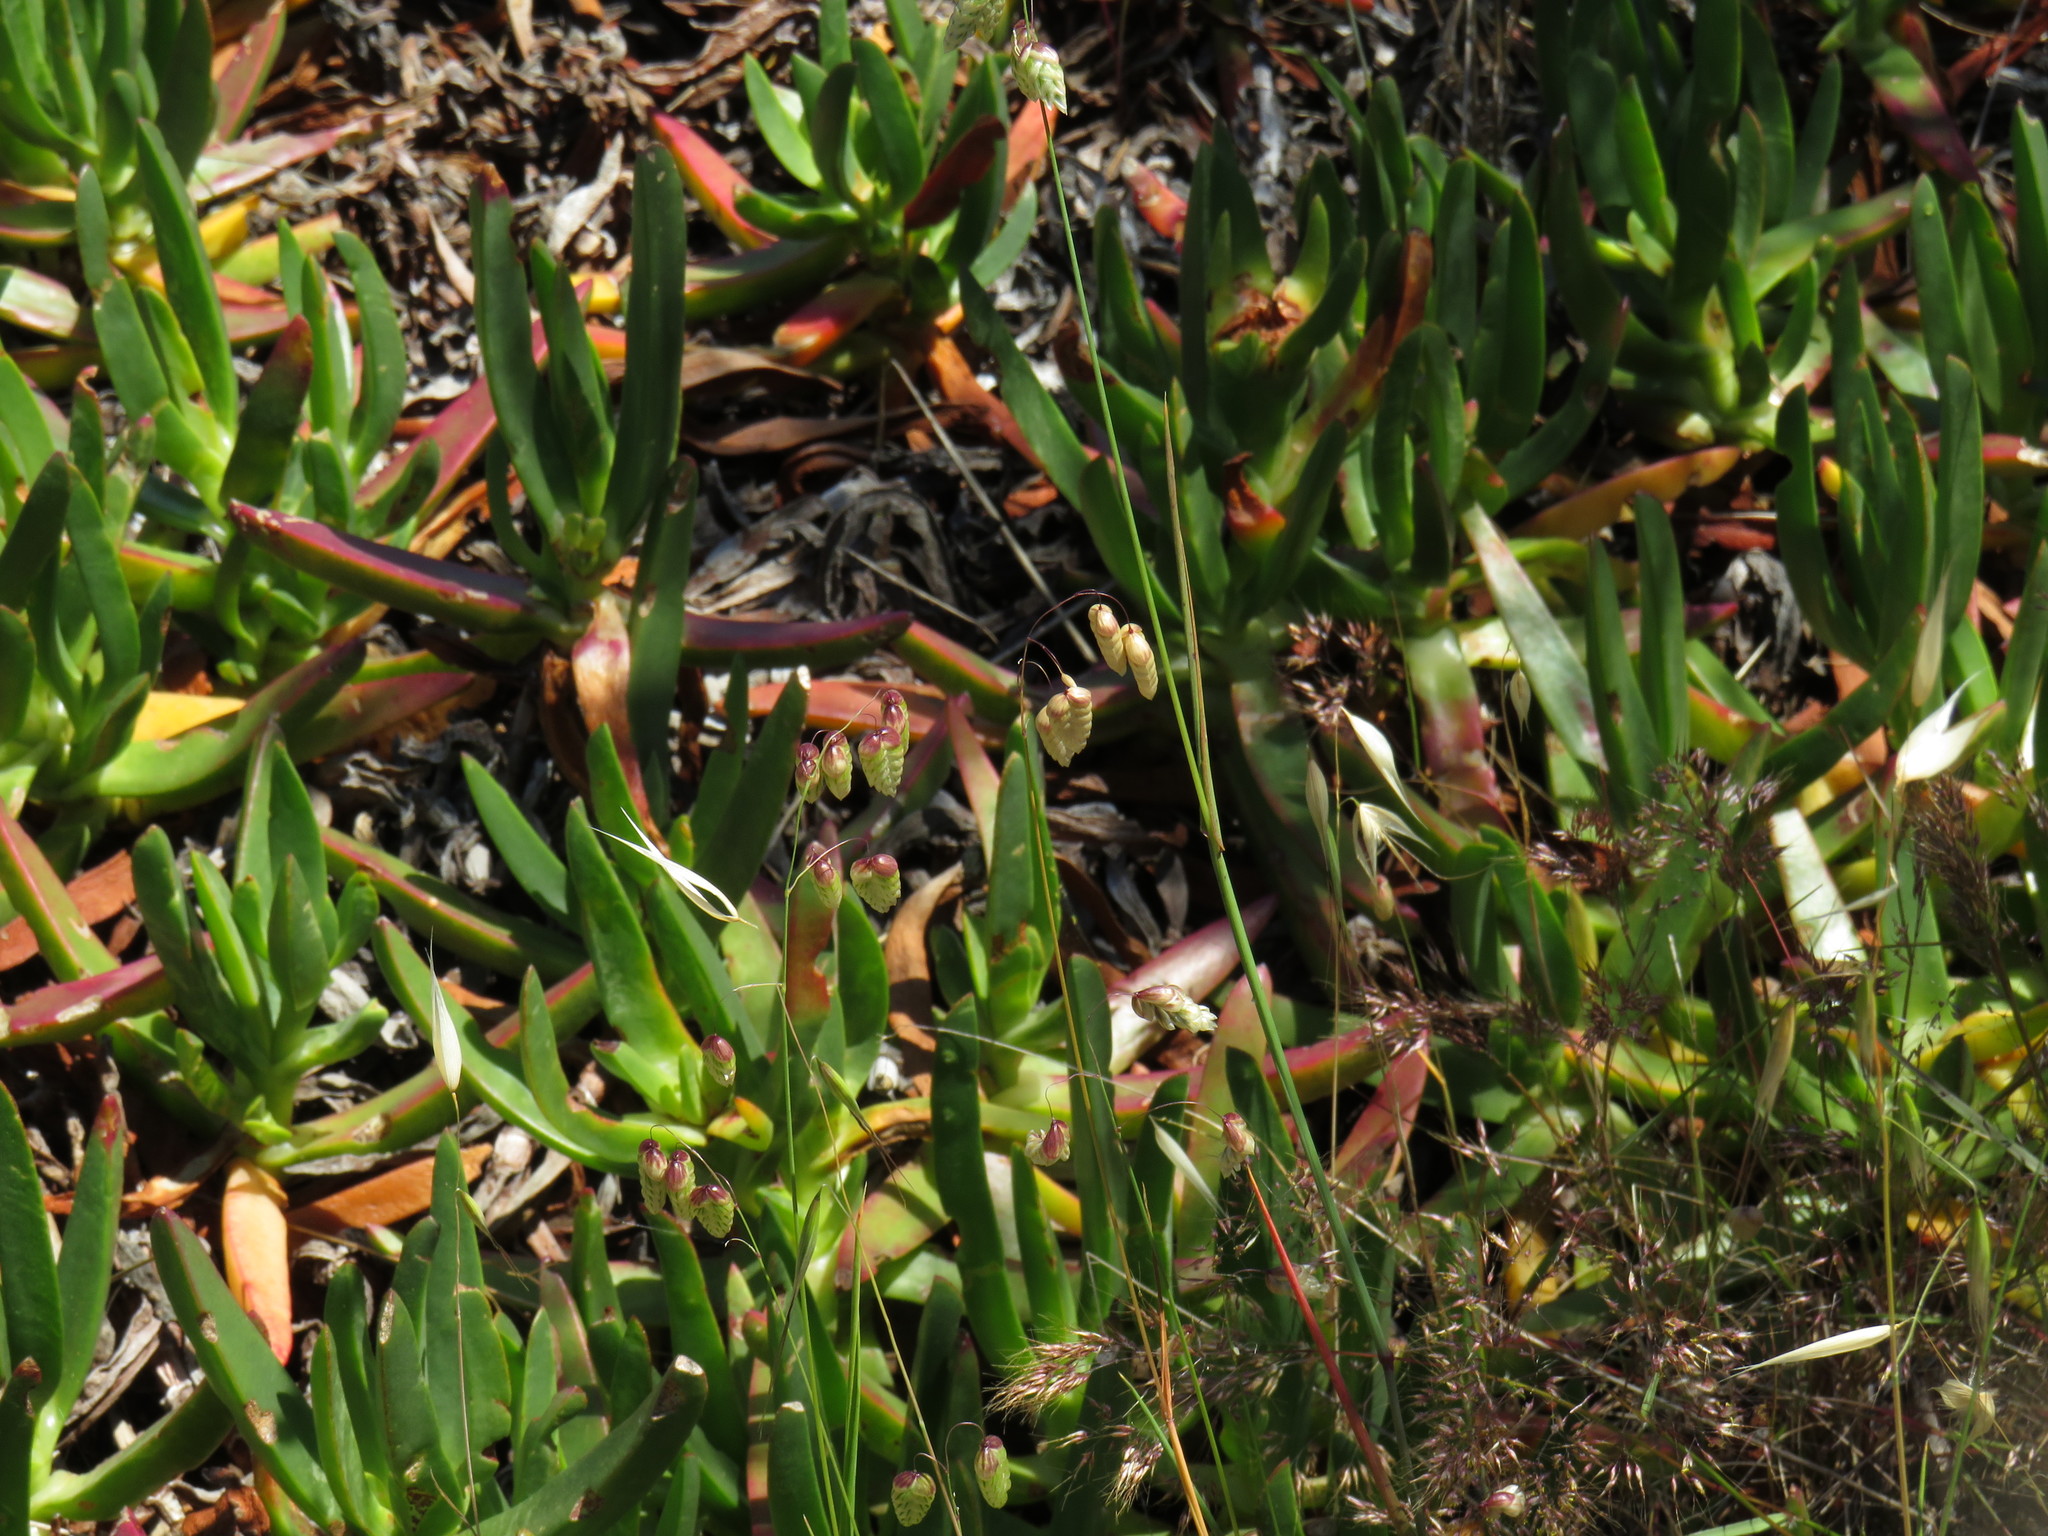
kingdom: Plantae
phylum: Tracheophyta
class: Liliopsida
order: Poales
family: Poaceae
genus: Briza
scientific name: Briza maxima
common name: Big quakinggrass
